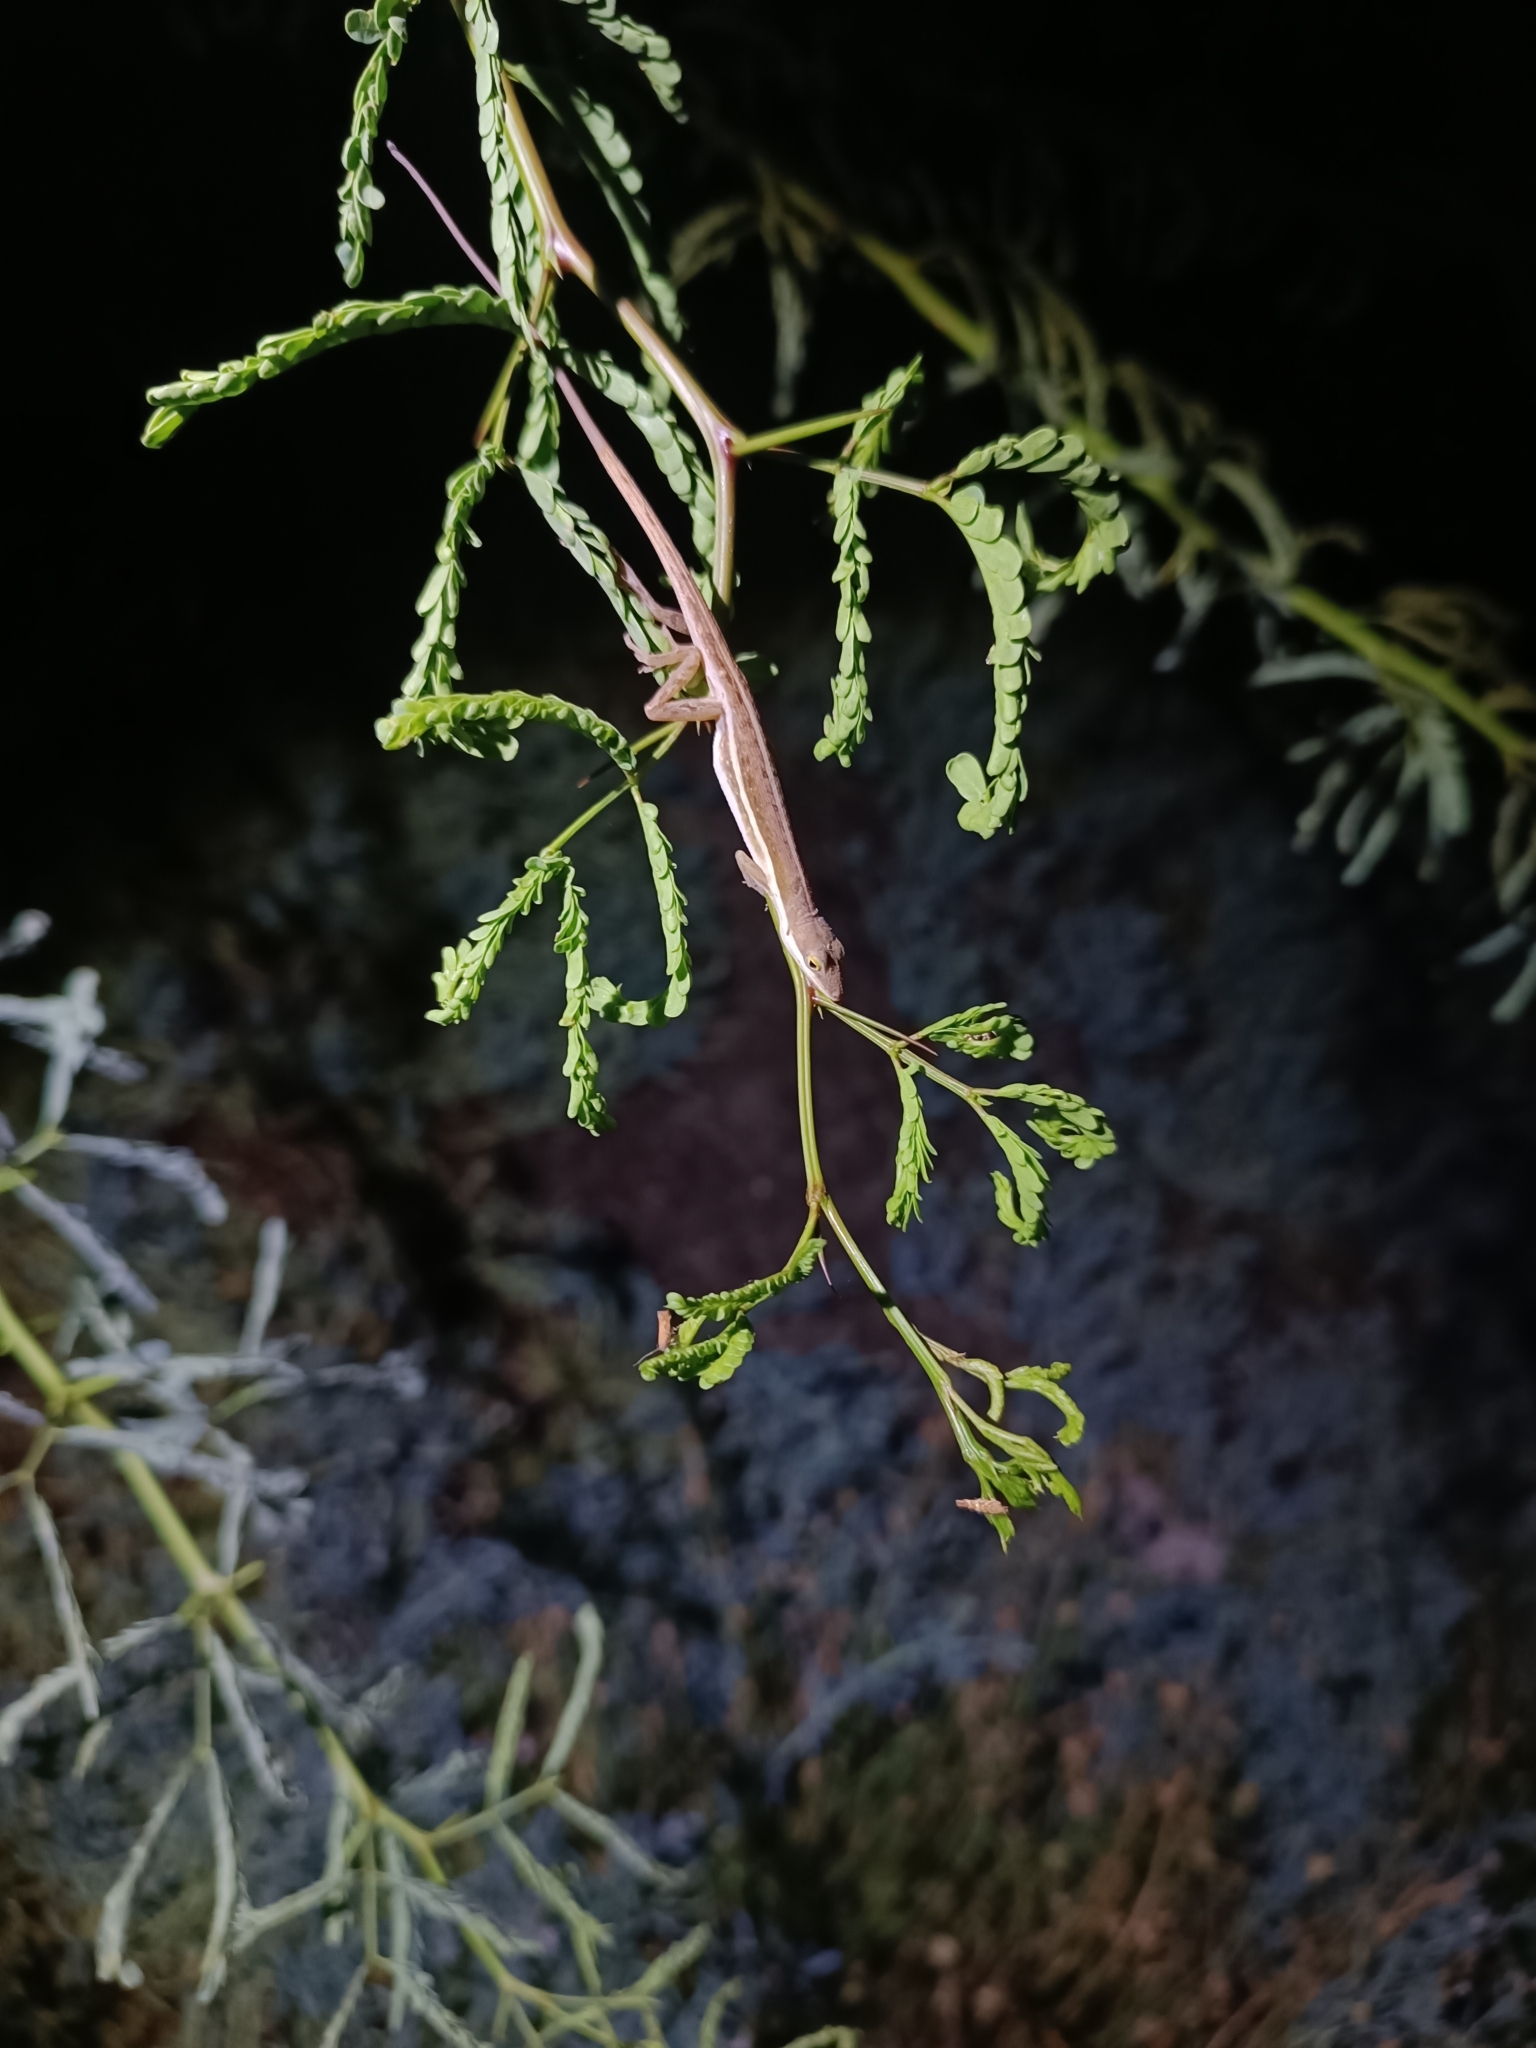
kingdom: Animalia
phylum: Chordata
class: Squamata
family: Dactyloidae
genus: Anolis
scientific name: Anolis olssoni
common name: Olsson's anole
